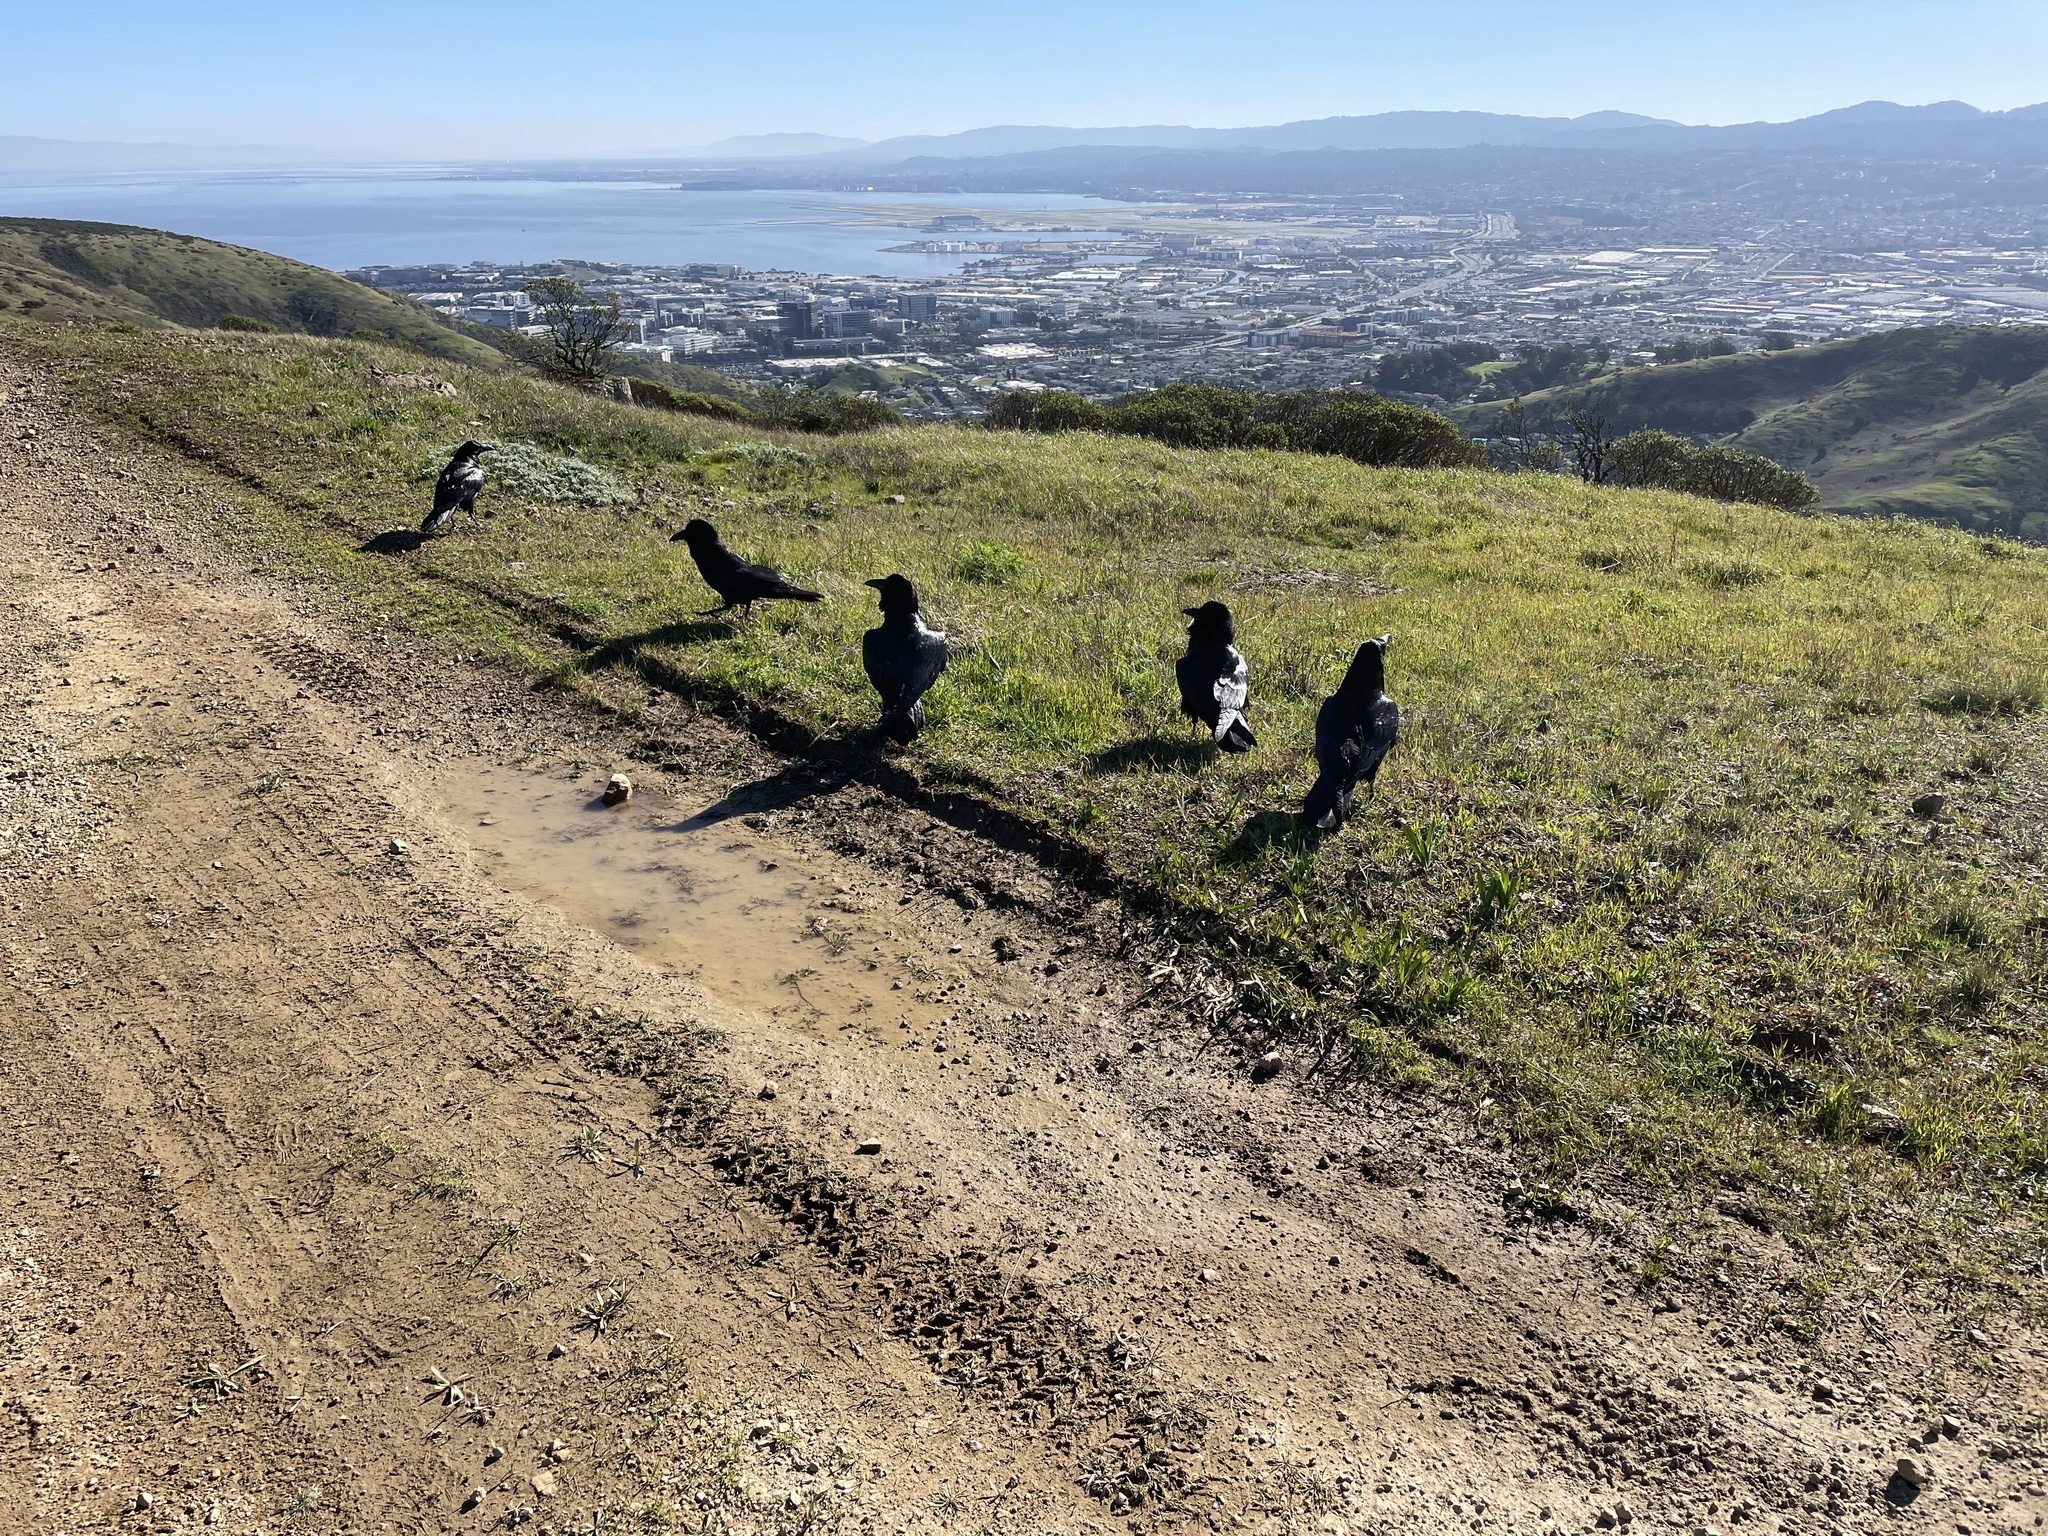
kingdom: Animalia
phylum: Chordata
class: Aves
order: Passeriformes
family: Corvidae
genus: Corvus
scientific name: Corvus corax
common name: Common raven
